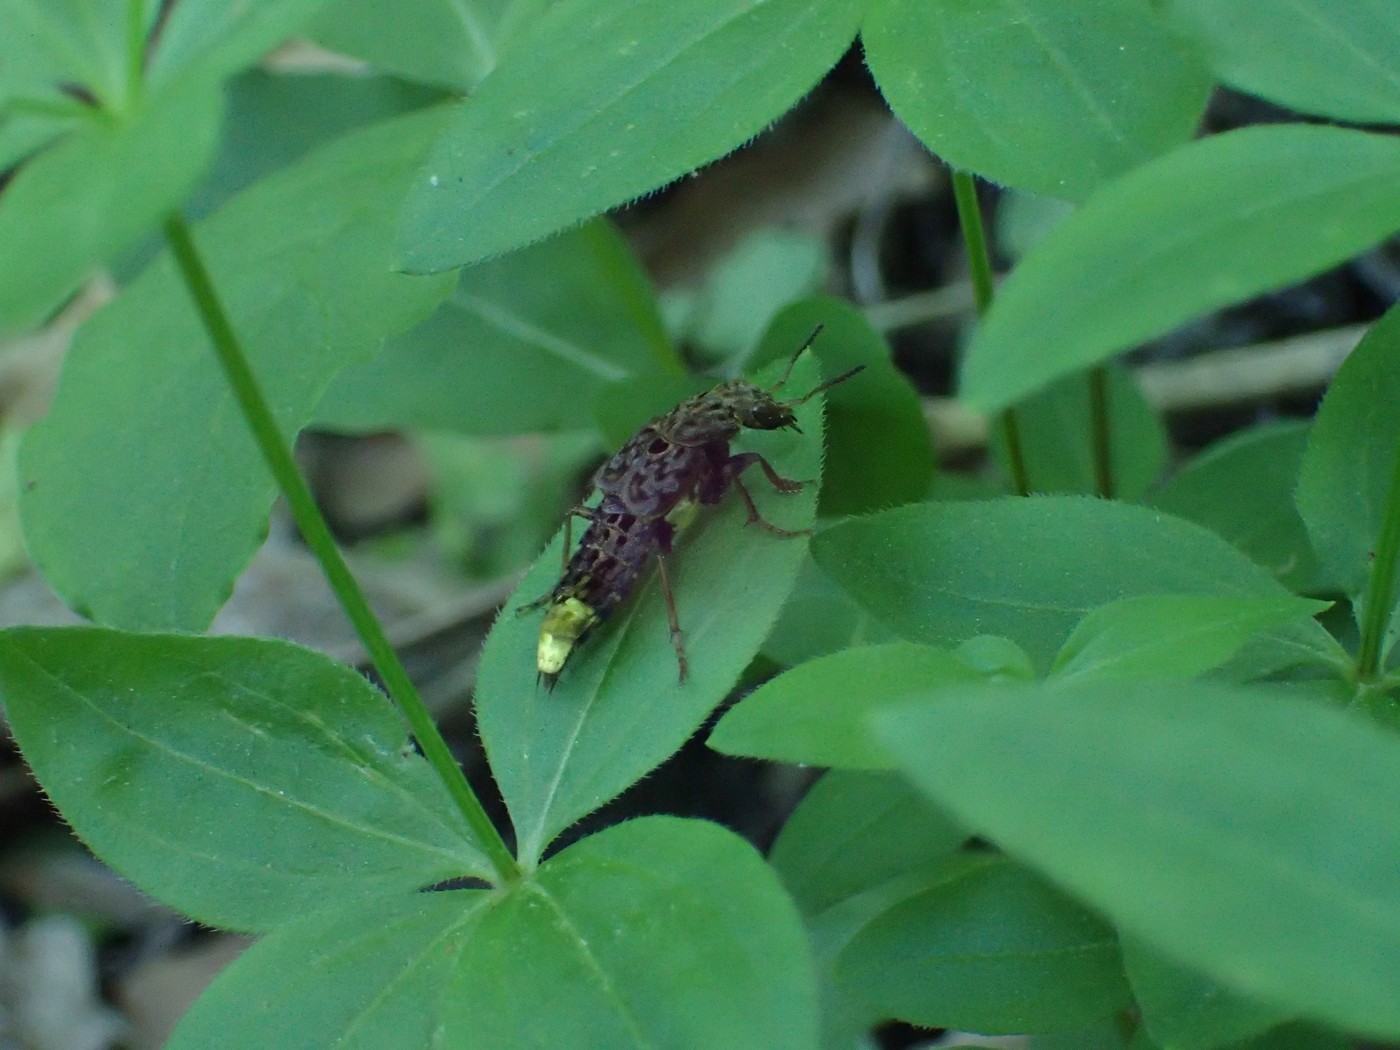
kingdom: Animalia
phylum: Arthropoda
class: Insecta
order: Coleoptera
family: Staphylinidae
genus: Ontholestes
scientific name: Ontholestes cingulatus
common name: Gold-and-brown rove beetle
